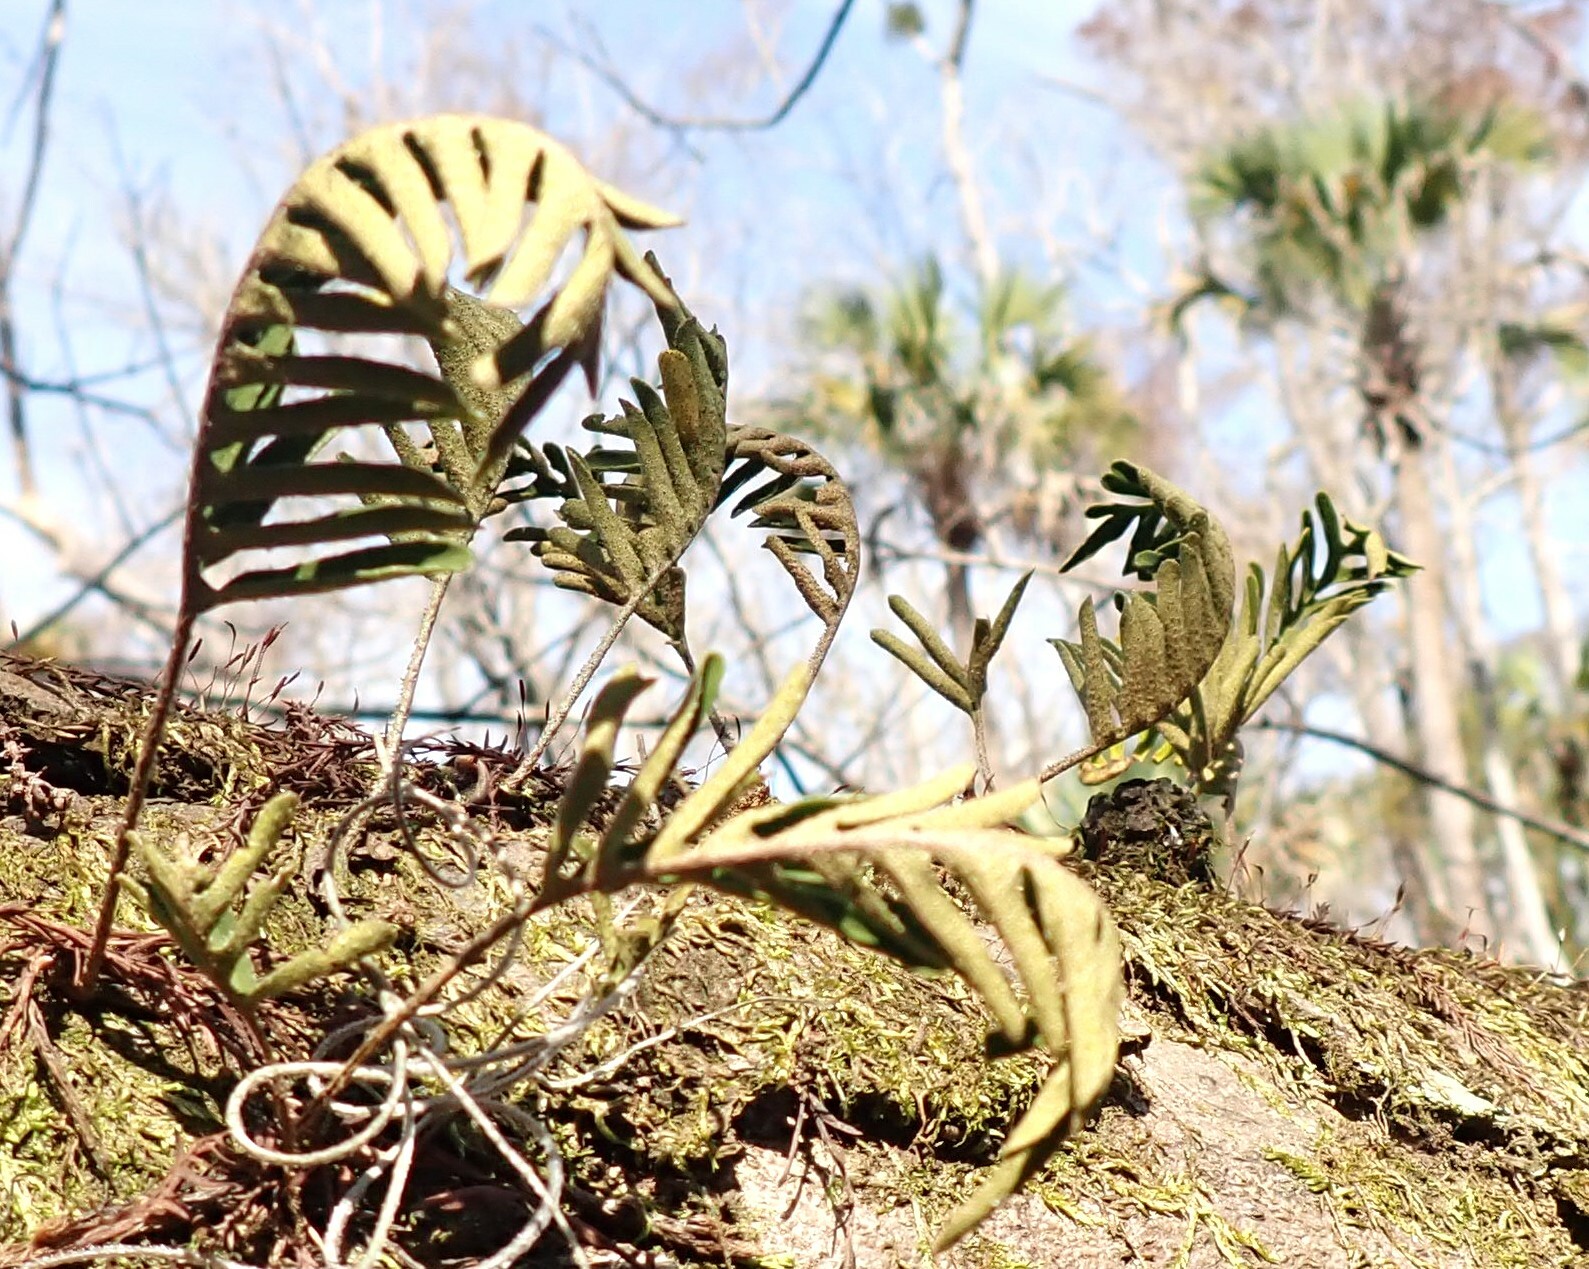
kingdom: Plantae
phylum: Tracheophyta
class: Polypodiopsida
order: Polypodiales
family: Polypodiaceae
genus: Pleopeltis
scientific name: Pleopeltis michauxiana
